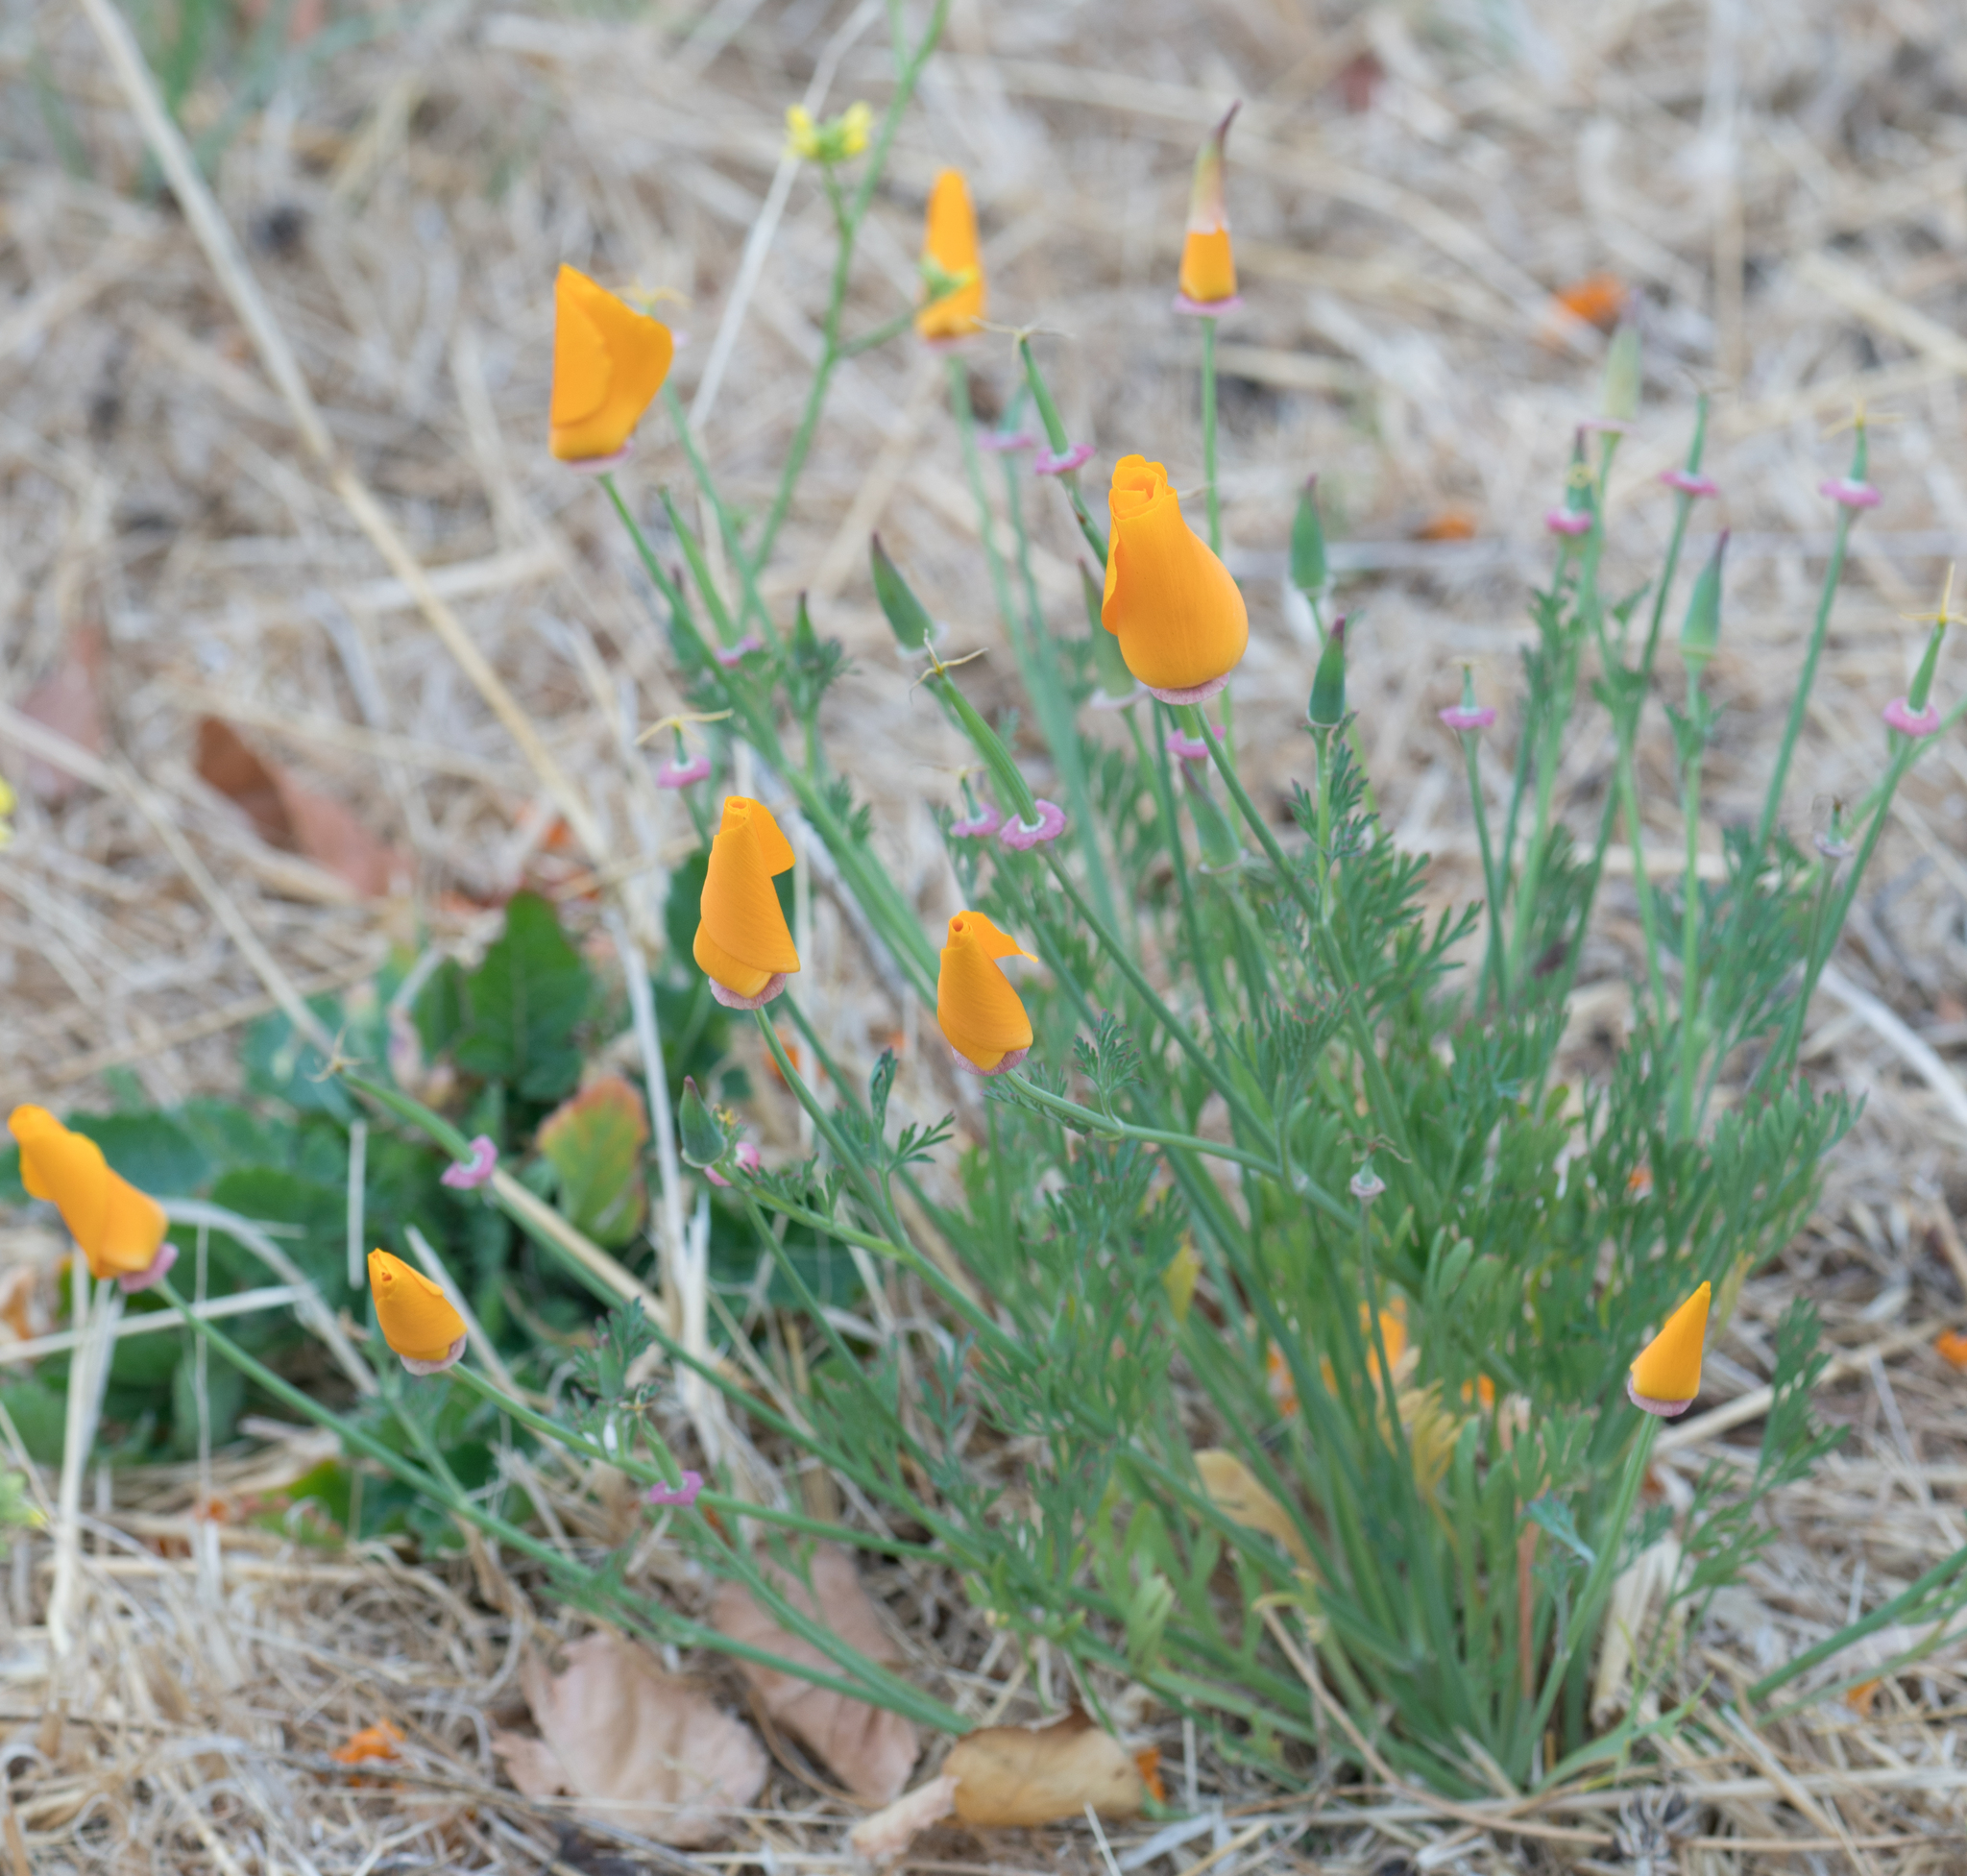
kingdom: Plantae
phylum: Tracheophyta
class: Magnoliopsida
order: Ranunculales
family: Papaveraceae
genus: Eschscholzia
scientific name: Eschscholzia californica
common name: California poppy
